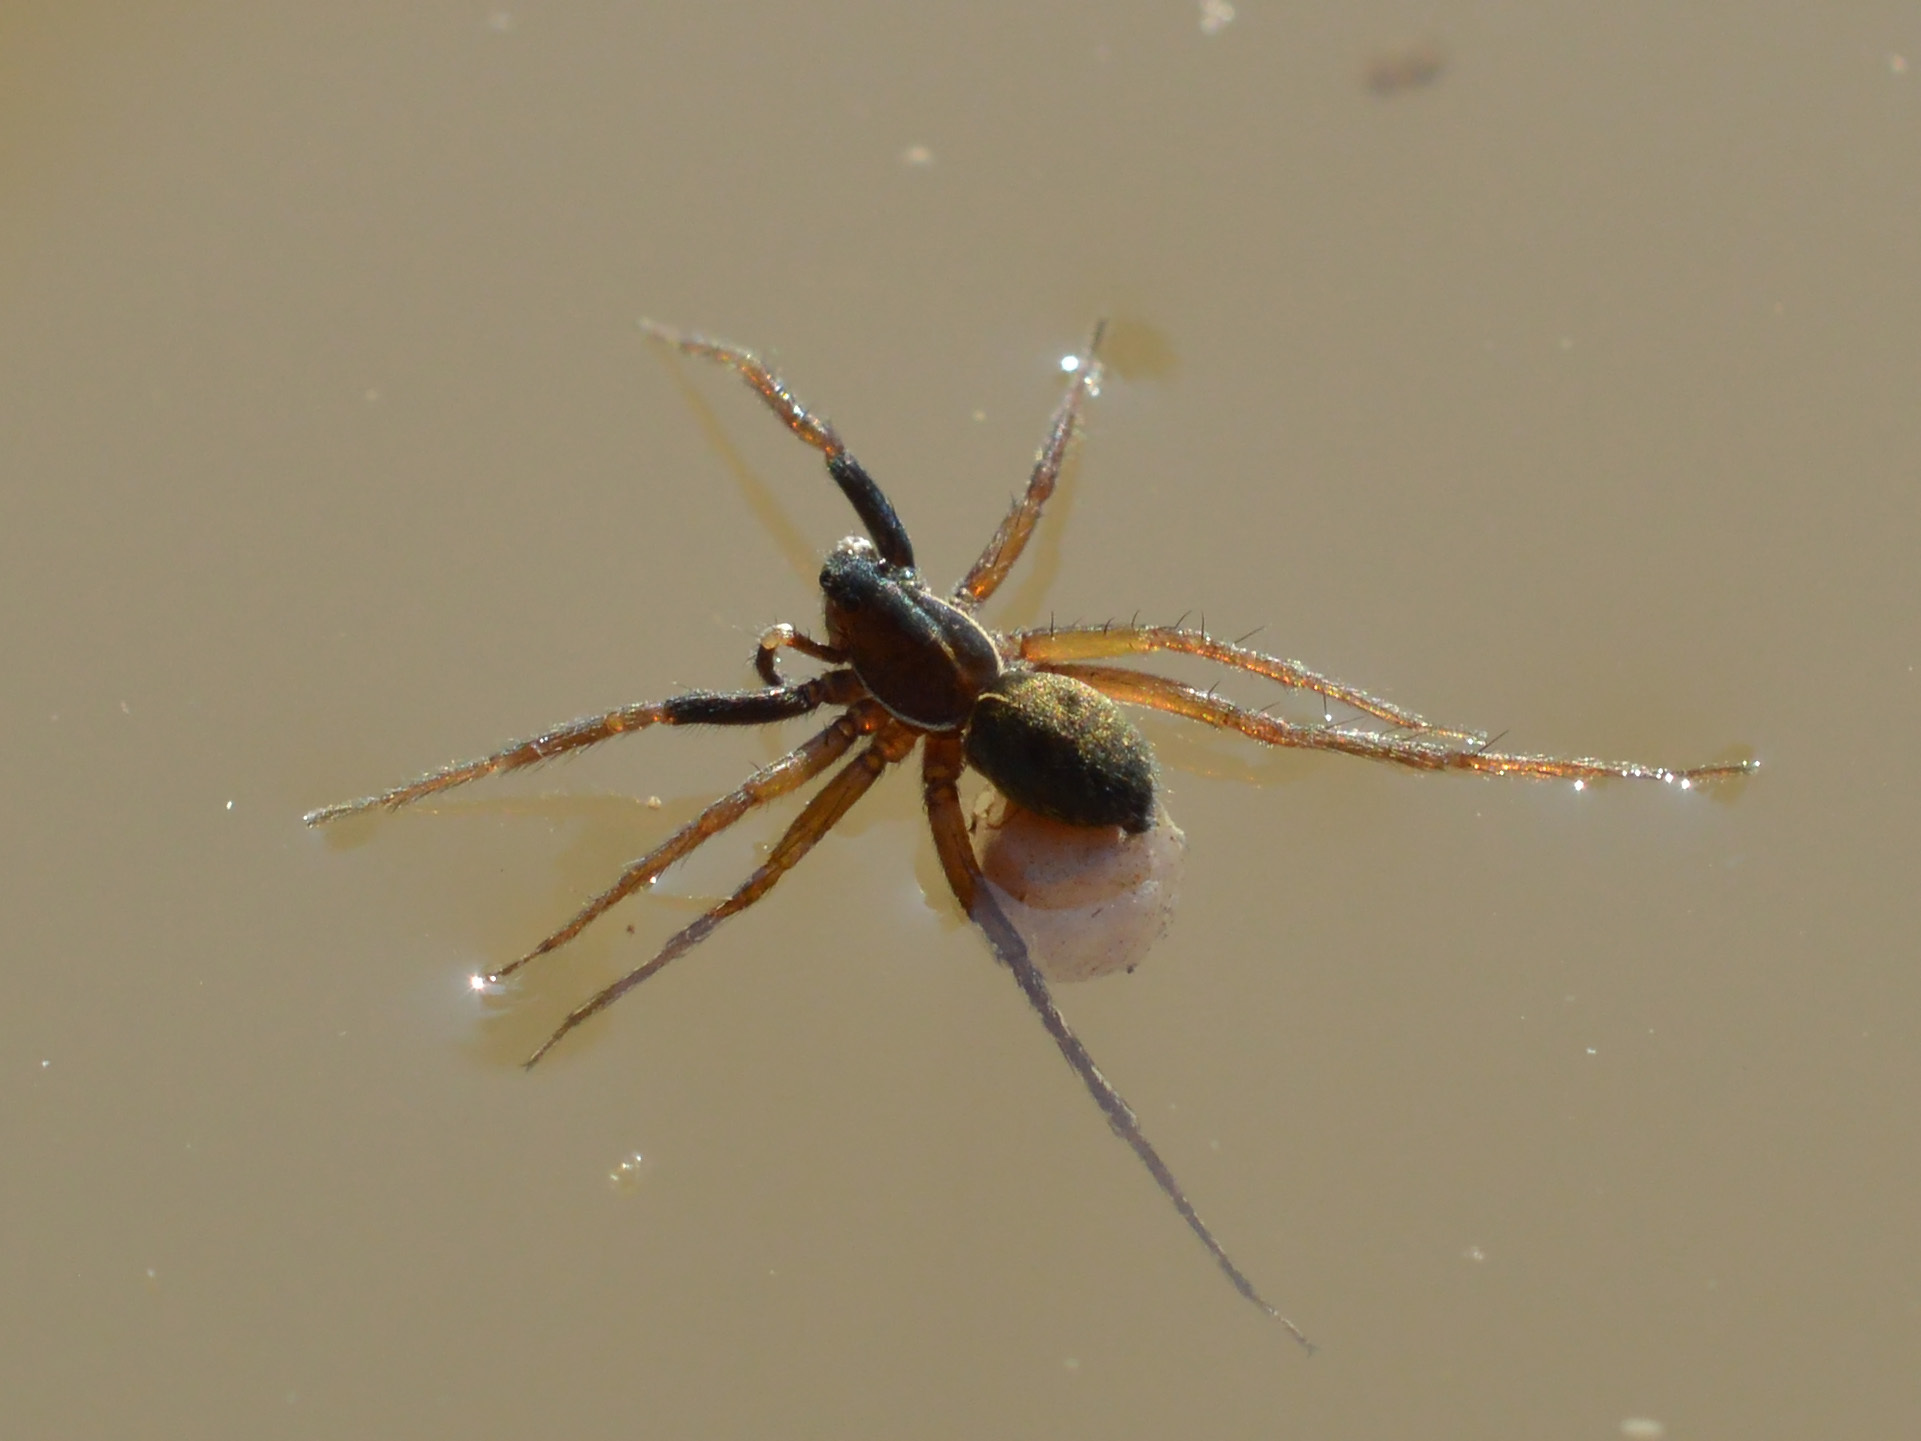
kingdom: Animalia
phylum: Arthropoda
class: Arachnida
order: Araneae
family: Lycosidae
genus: Aulonia
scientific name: Aulonia albimana
